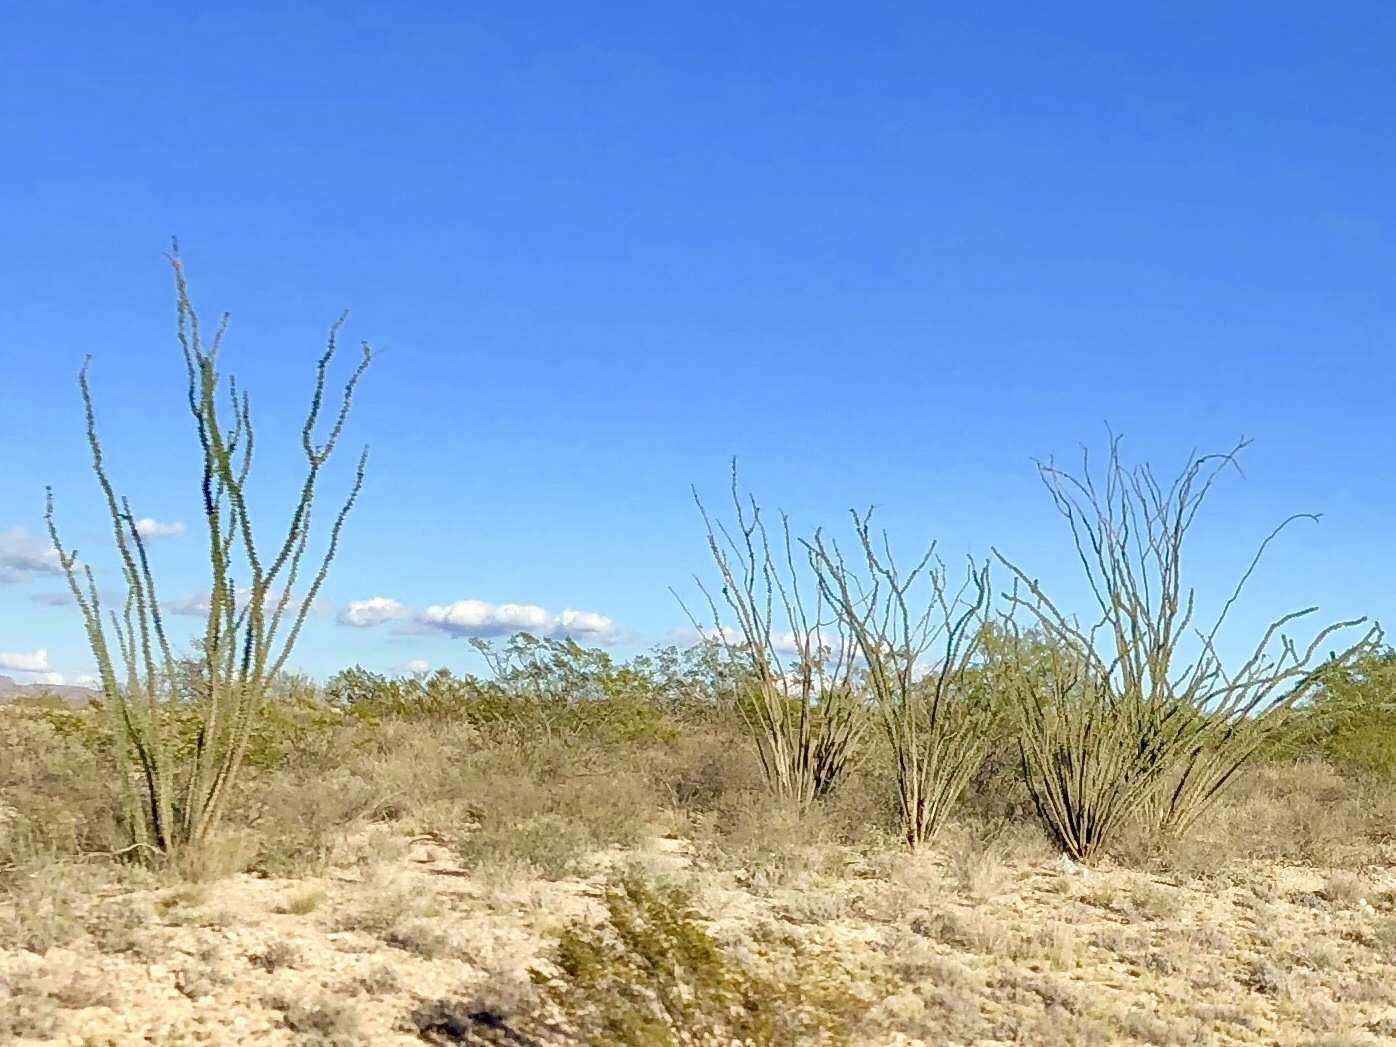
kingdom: Plantae
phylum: Tracheophyta
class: Magnoliopsida
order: Ericales
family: Fouquieriaceae
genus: Fouquieria
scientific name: Fouquieria splendens
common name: Vine-cactus
